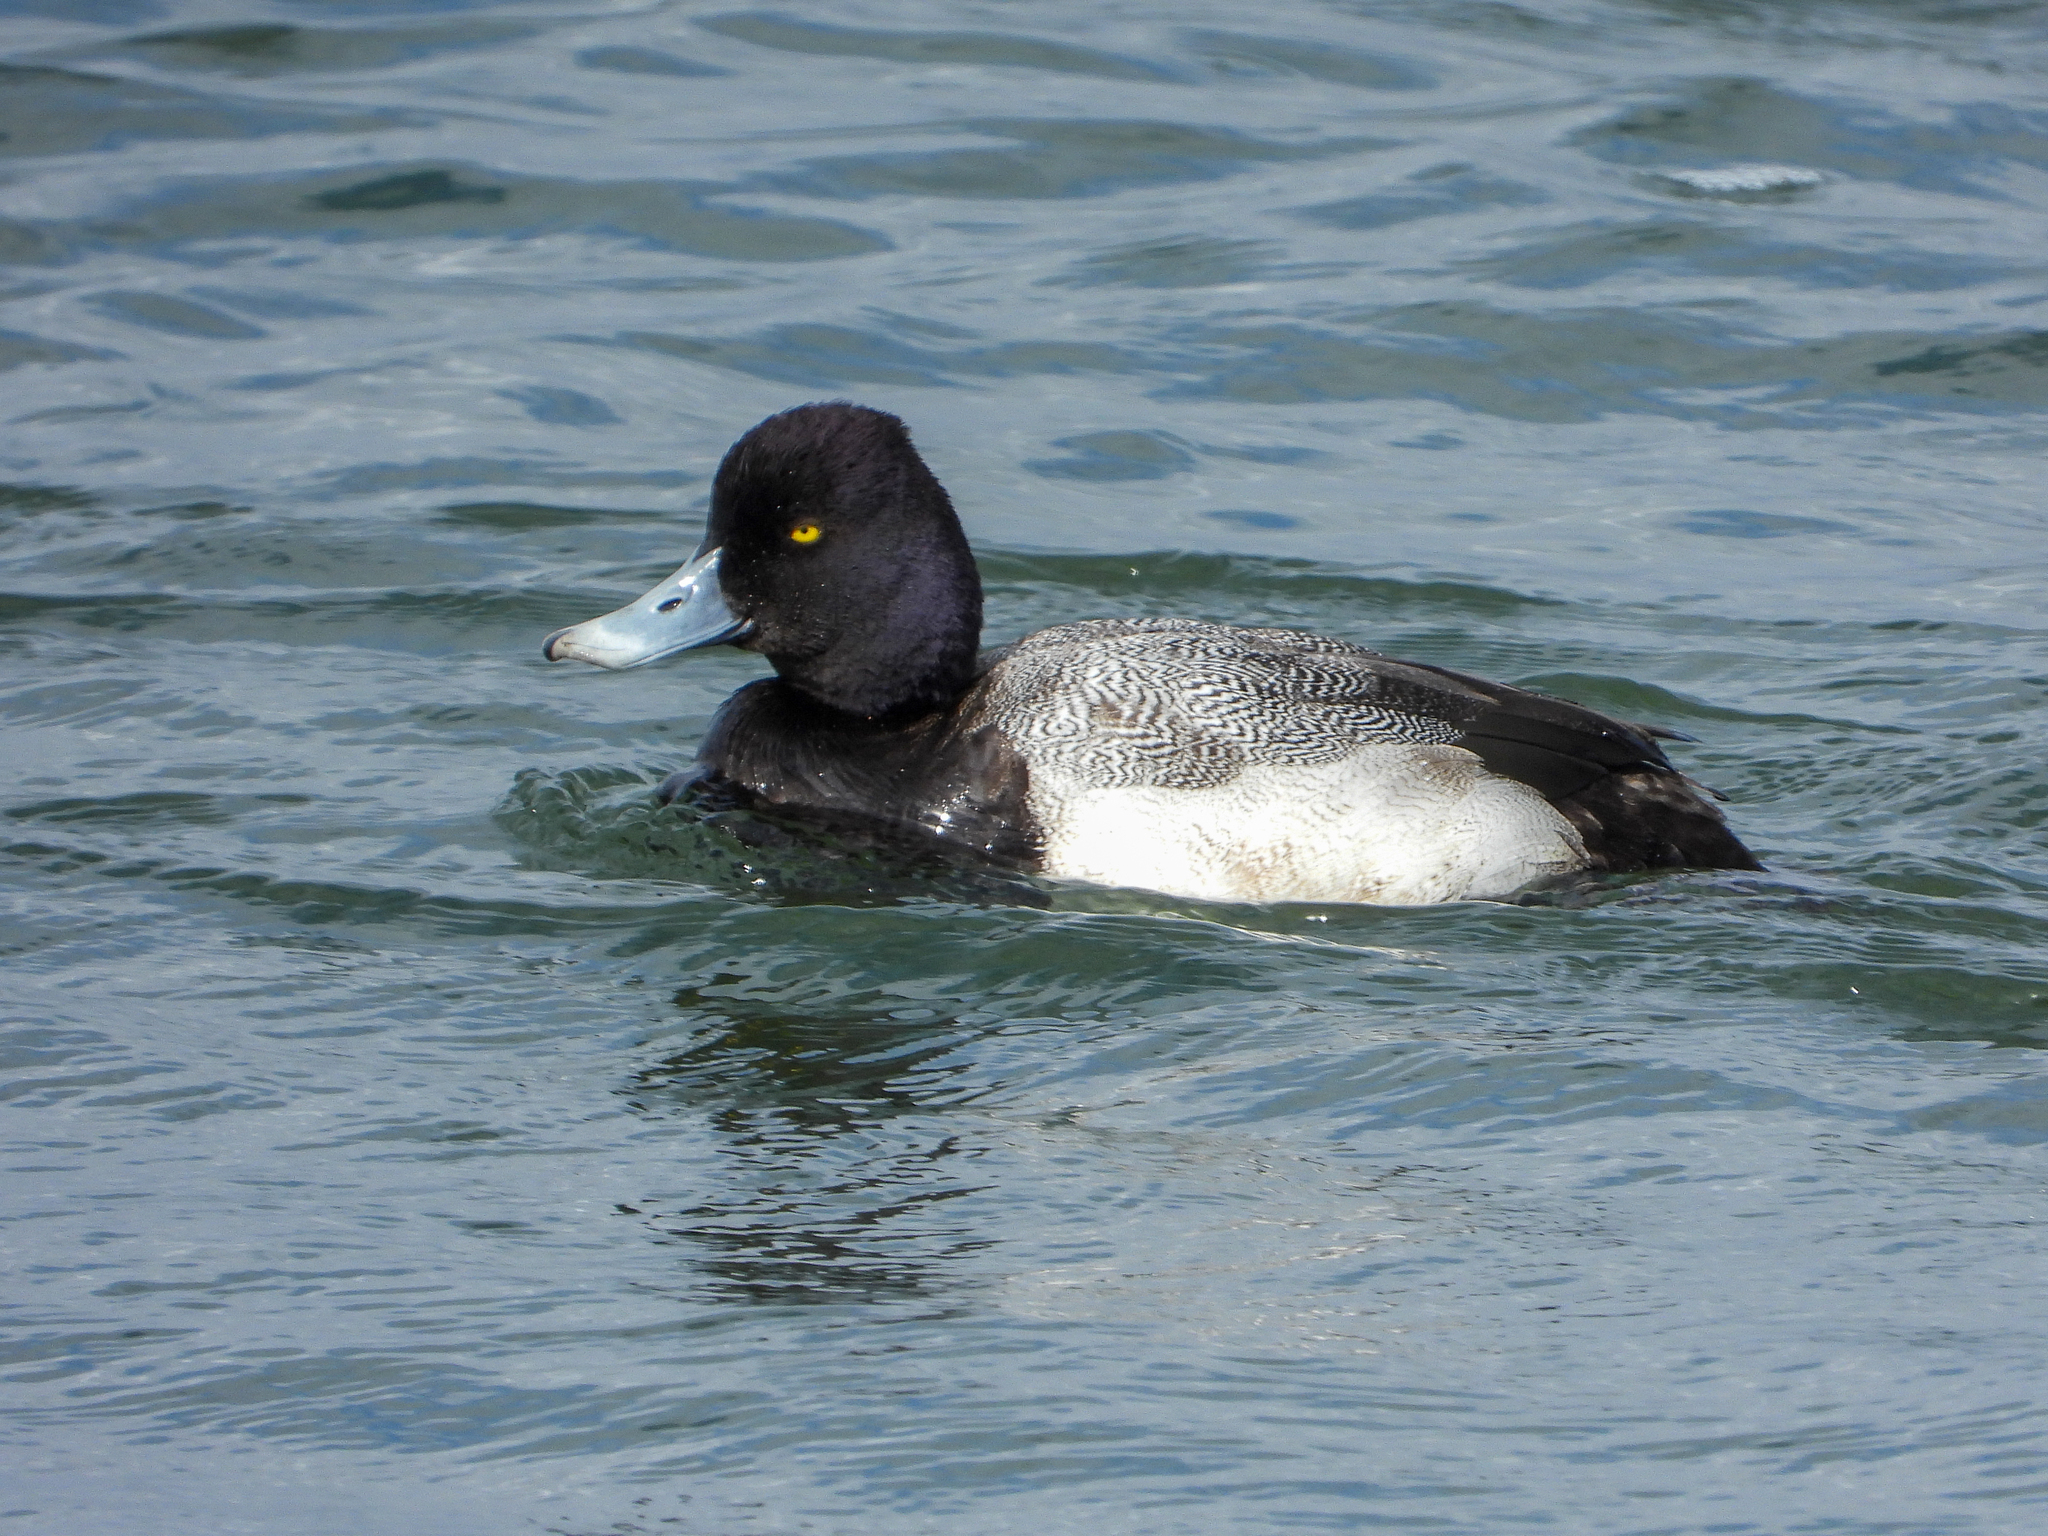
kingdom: Animalia
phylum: Chordata
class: Aves
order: Anseriformes
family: Anatidae
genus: Aythya
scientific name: Aythya affinis
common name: Lesser scaup
